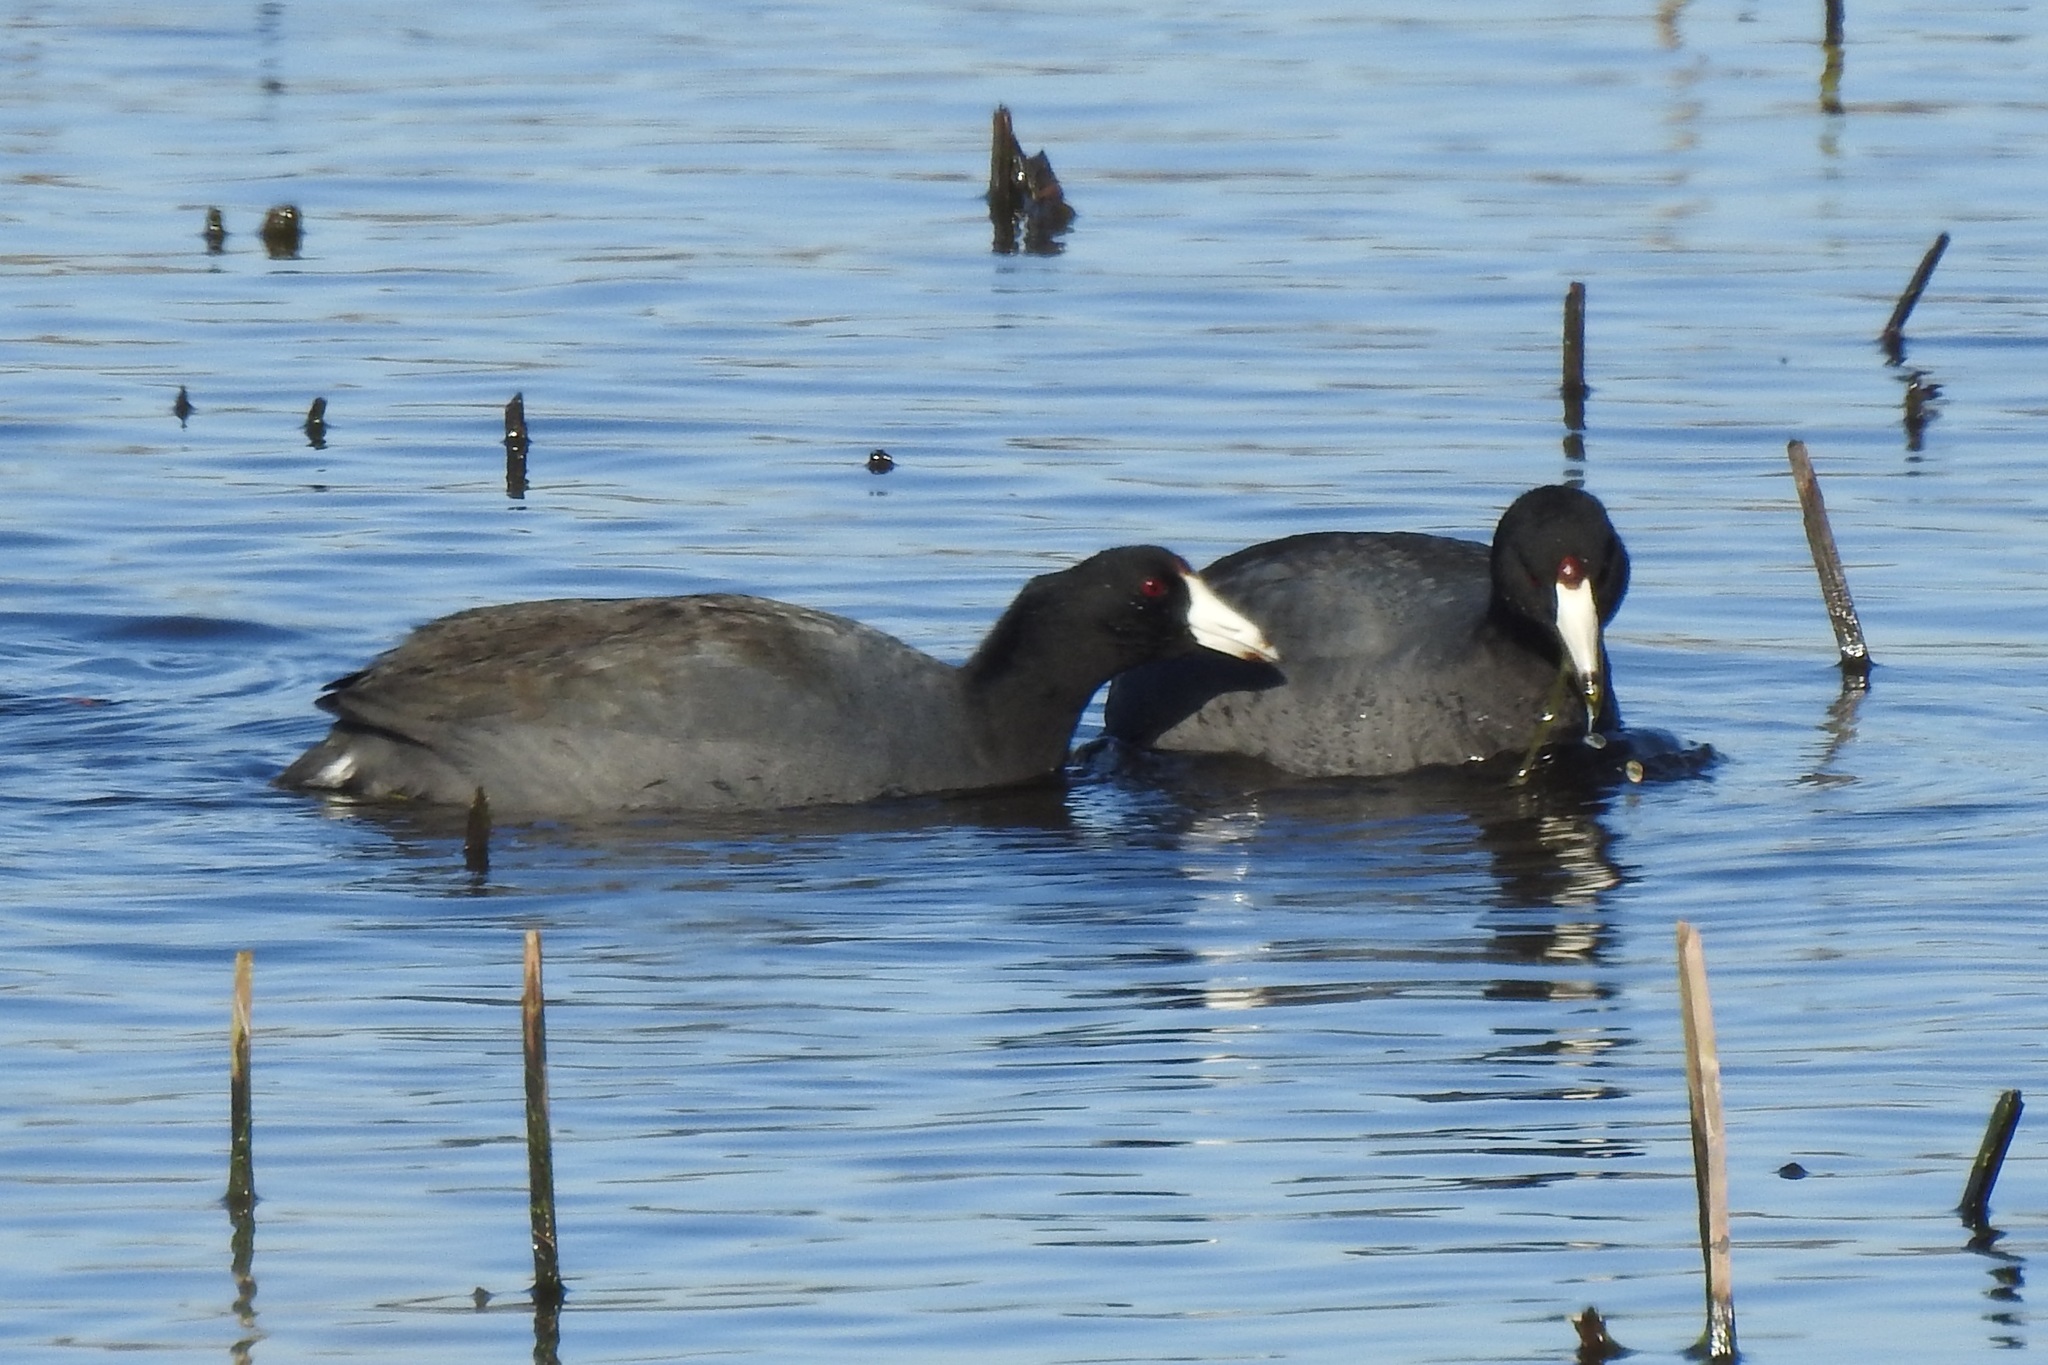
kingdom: Animalia
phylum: Chordata
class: Aves
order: Gruiformes
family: Rallidae
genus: Fulica
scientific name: Fulica americana
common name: American coot
